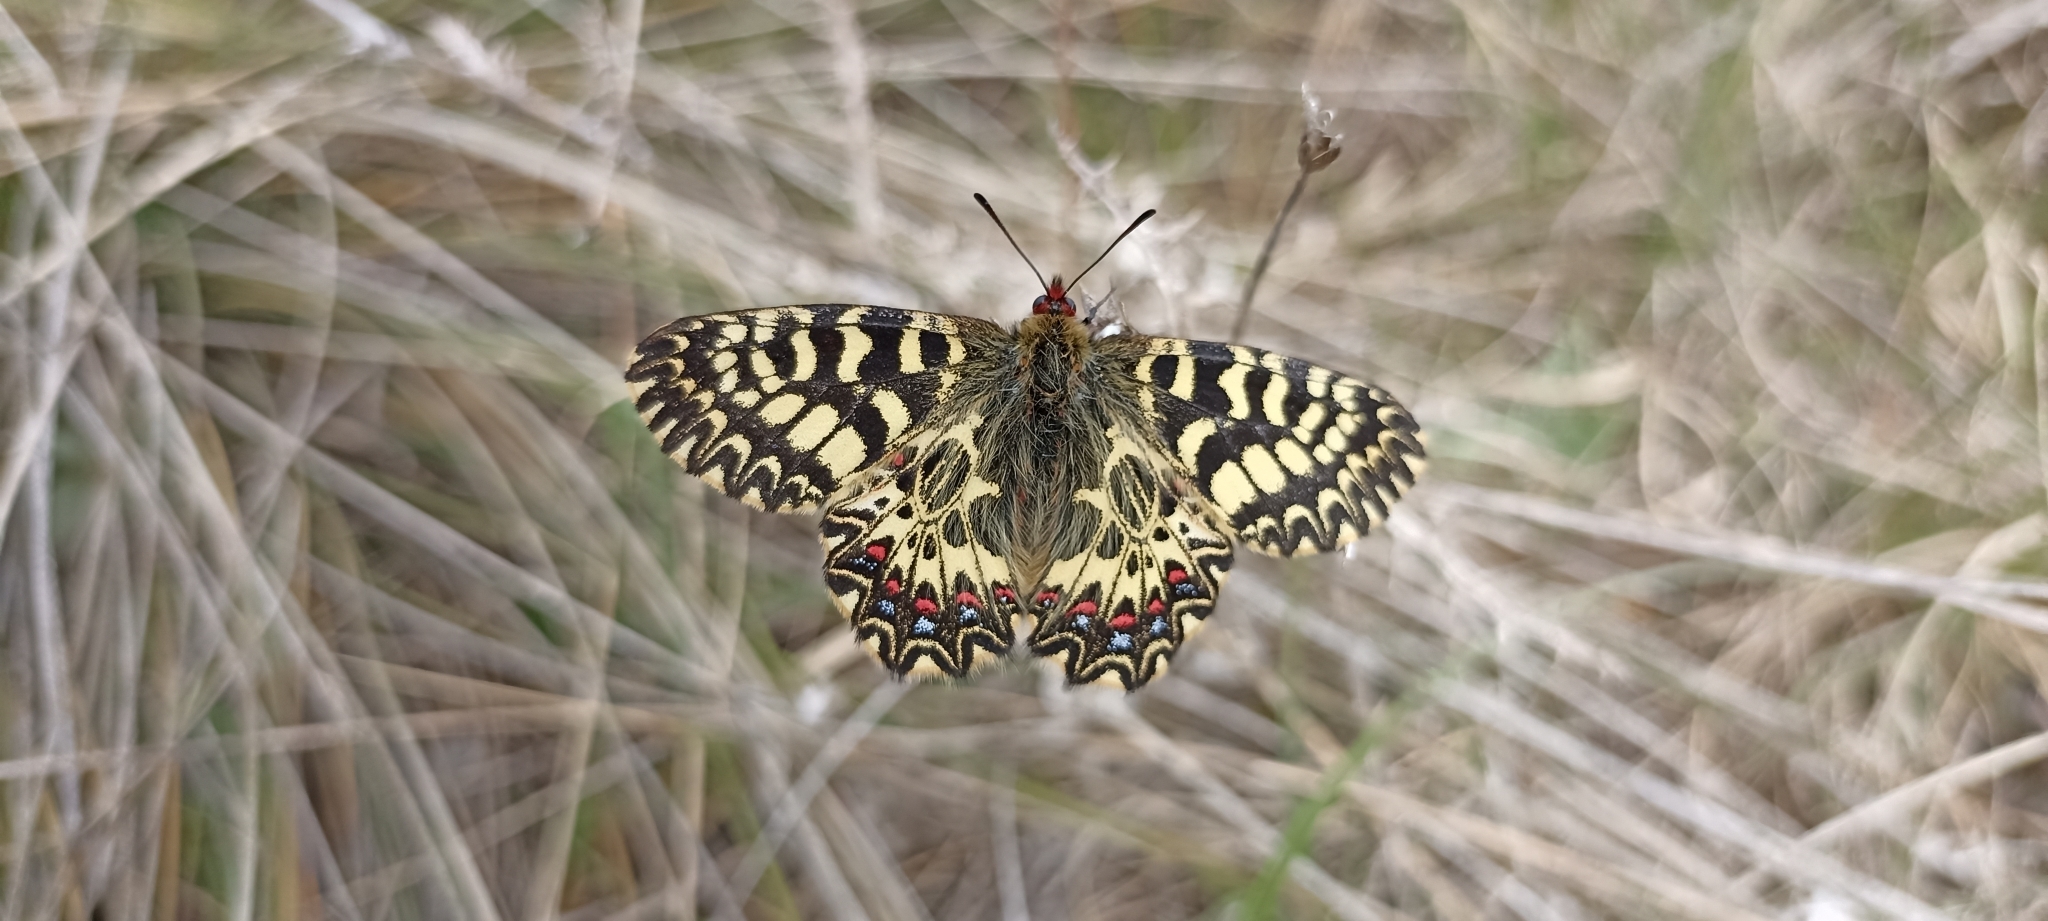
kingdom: Animalia
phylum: Arthropoda
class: Insecta
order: Lepidoptera
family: Papilionidae
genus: Zerynthia
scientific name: Zerynthia polyxena
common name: Southern festoon
